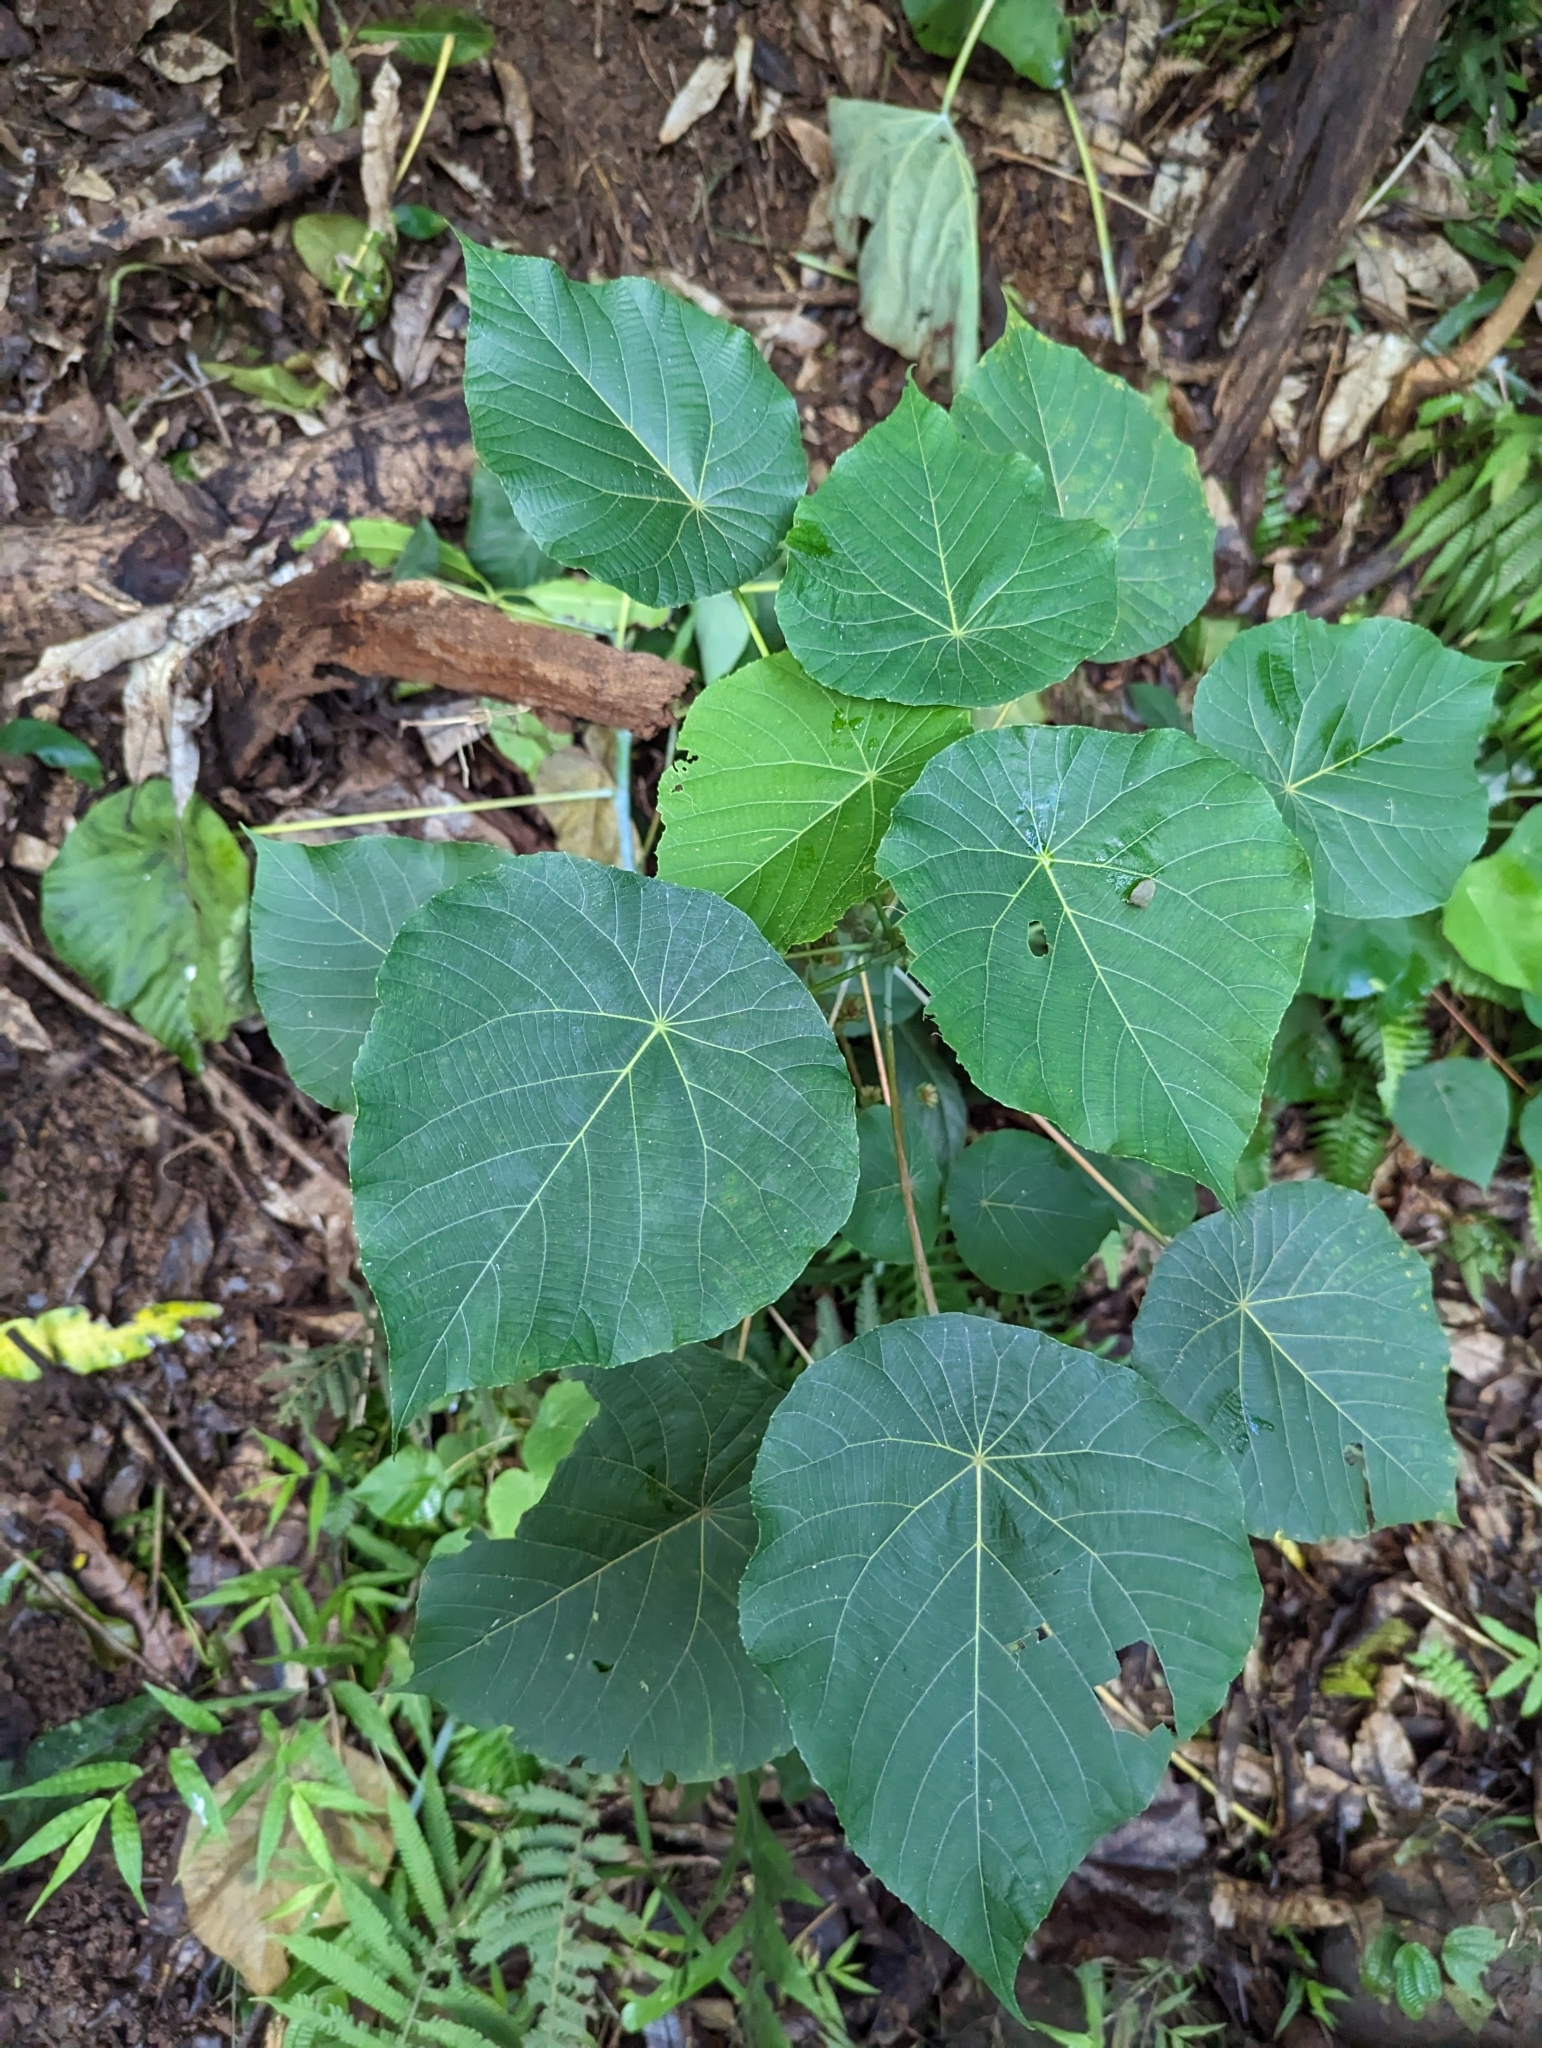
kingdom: Plantae
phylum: Tracheophyta
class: Magnoliopsida
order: Malpighiales
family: Euphorbiaceae
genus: Macaranga
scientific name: Macaranga tanarius
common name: Parasol leaf tree
